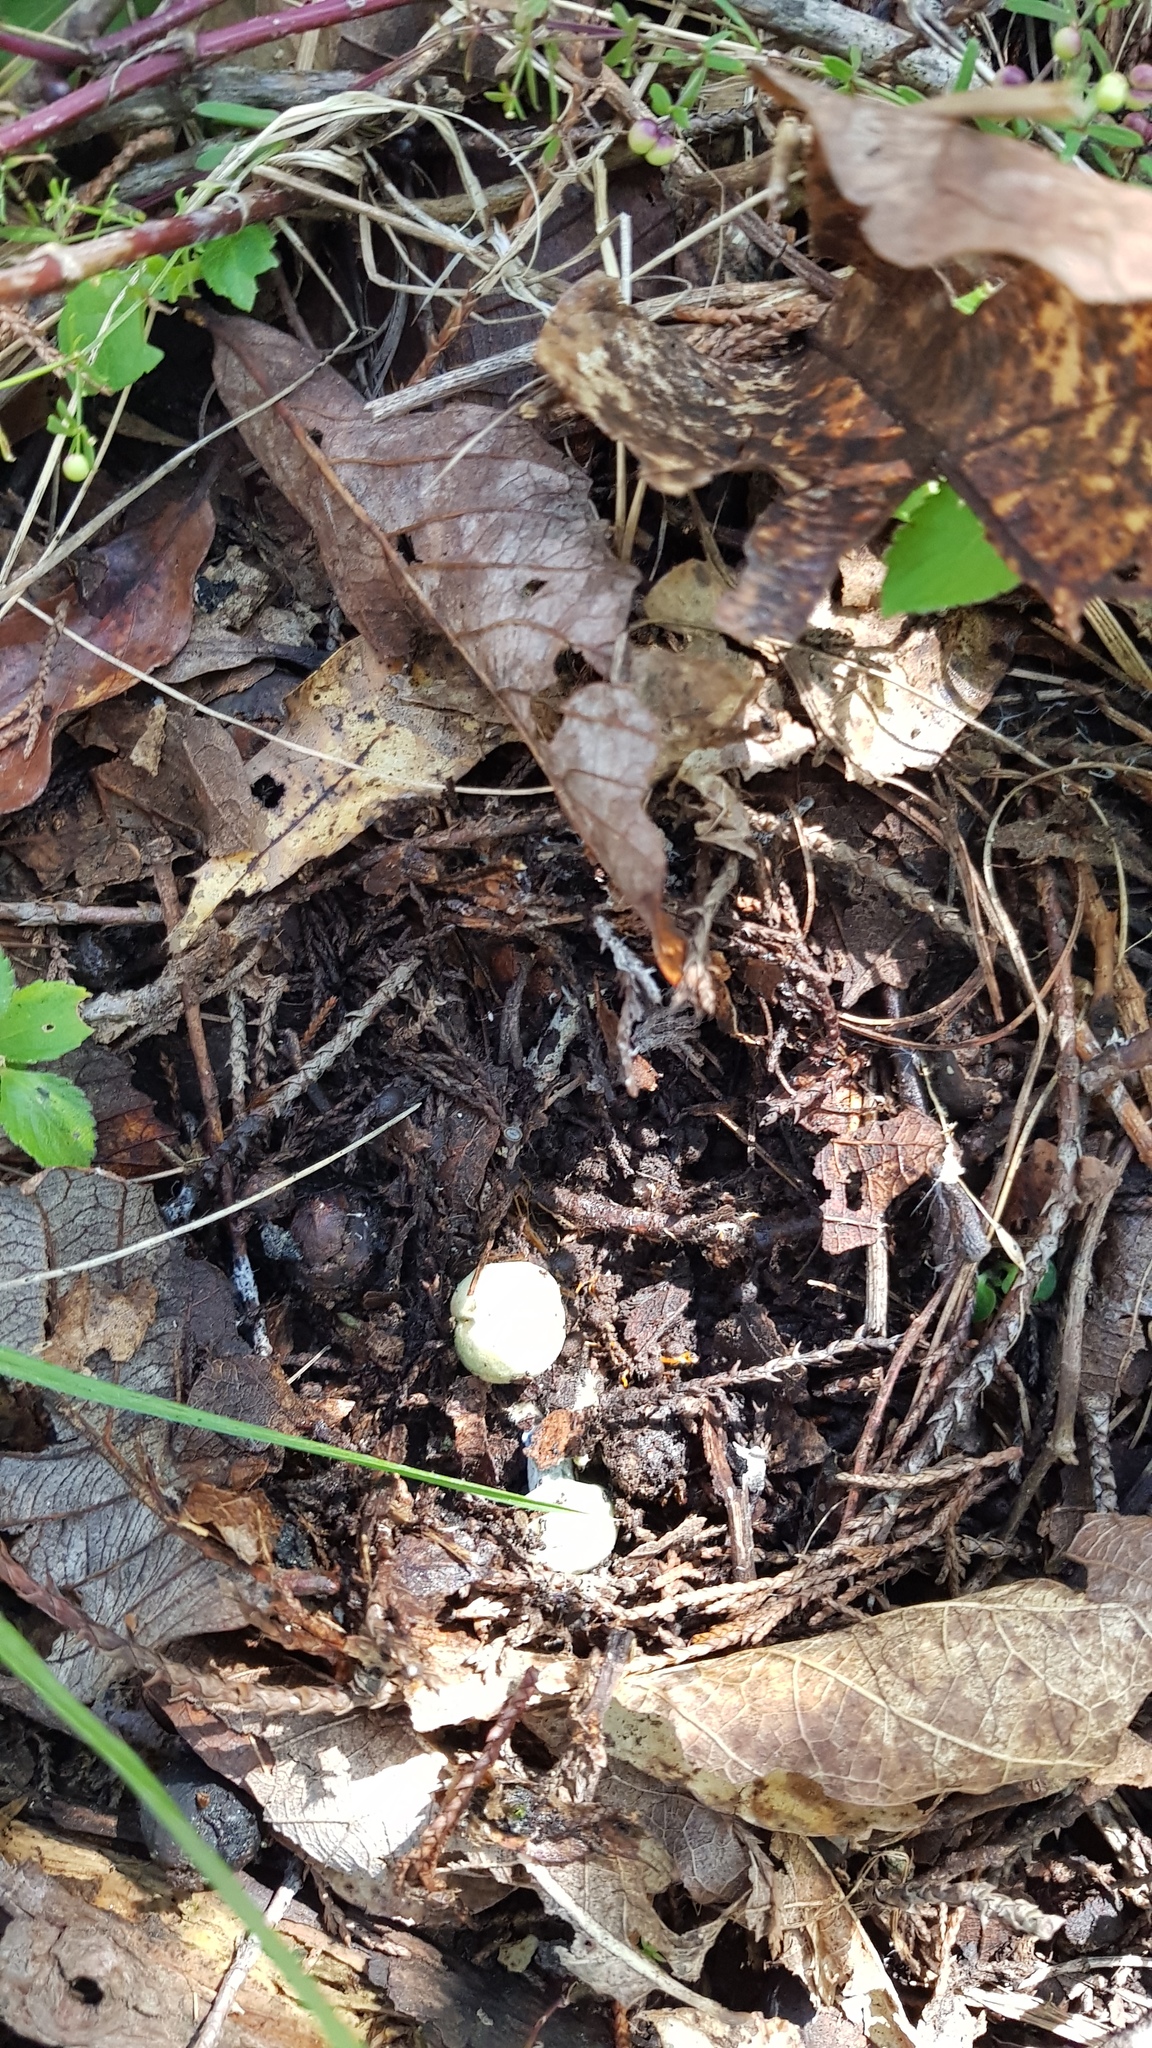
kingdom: Fungi
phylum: Basidiomycota
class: Agaricomycetes
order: Russulales
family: Russulaceae
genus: Lactarius
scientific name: Lactarius indigo
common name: Indigo milk cap
